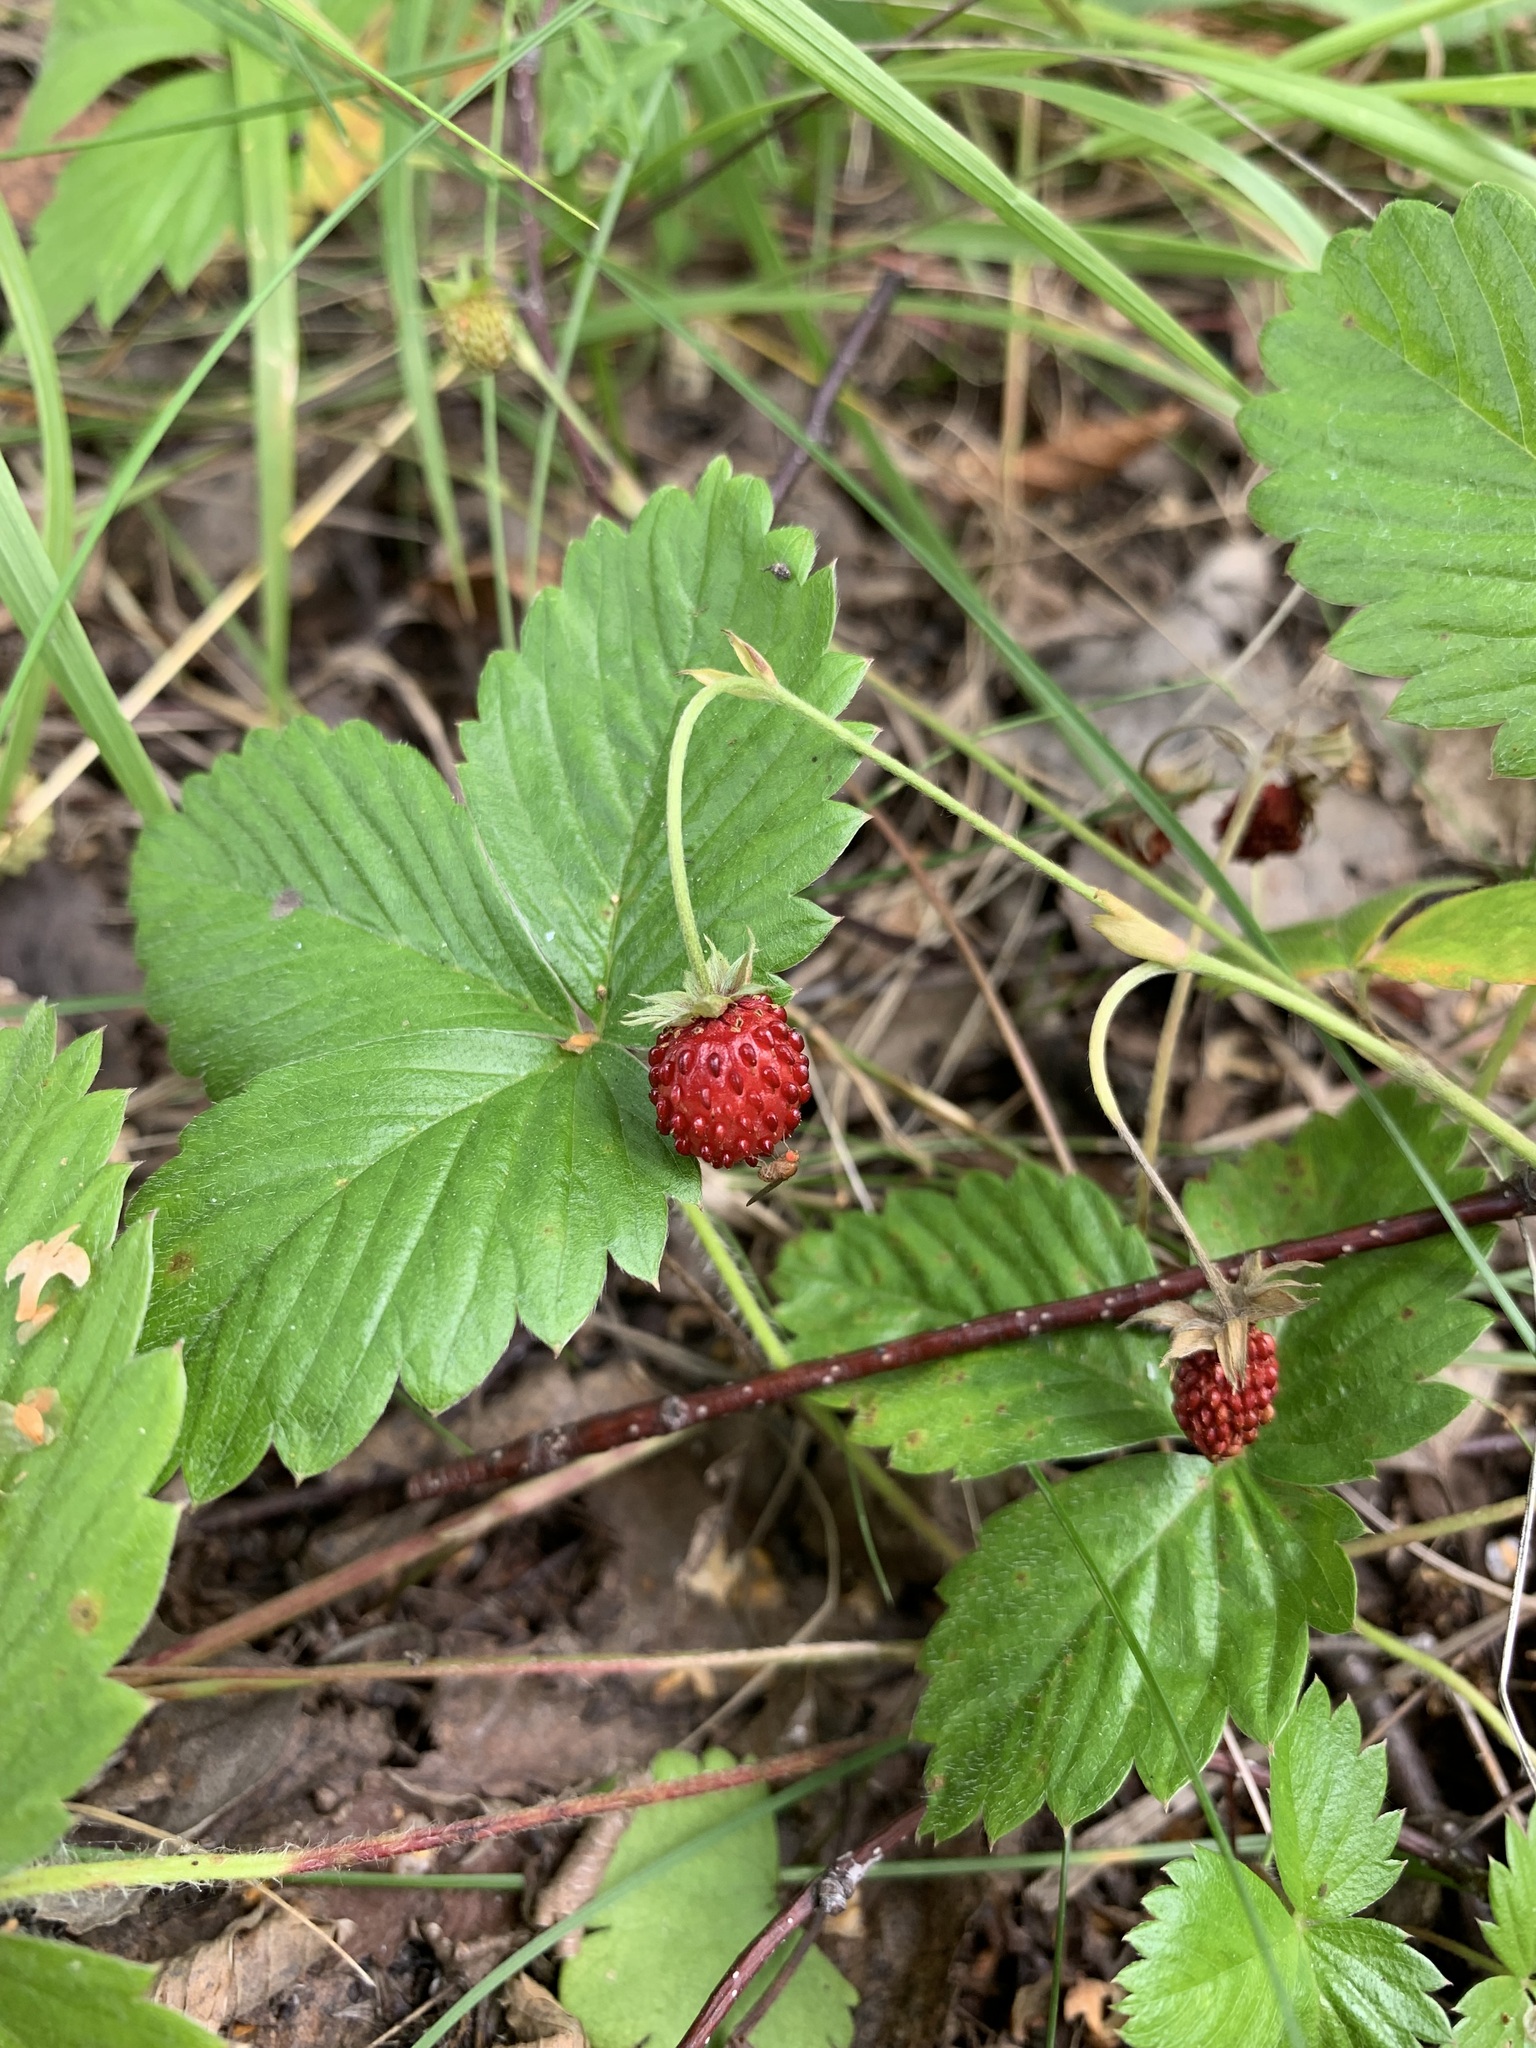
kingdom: Plantae
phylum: Tracheophyta
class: Magnoliopsida
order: Rosales
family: Rosaceae
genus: Fragaria
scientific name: Fragaria vesca
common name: Wild strawberry
